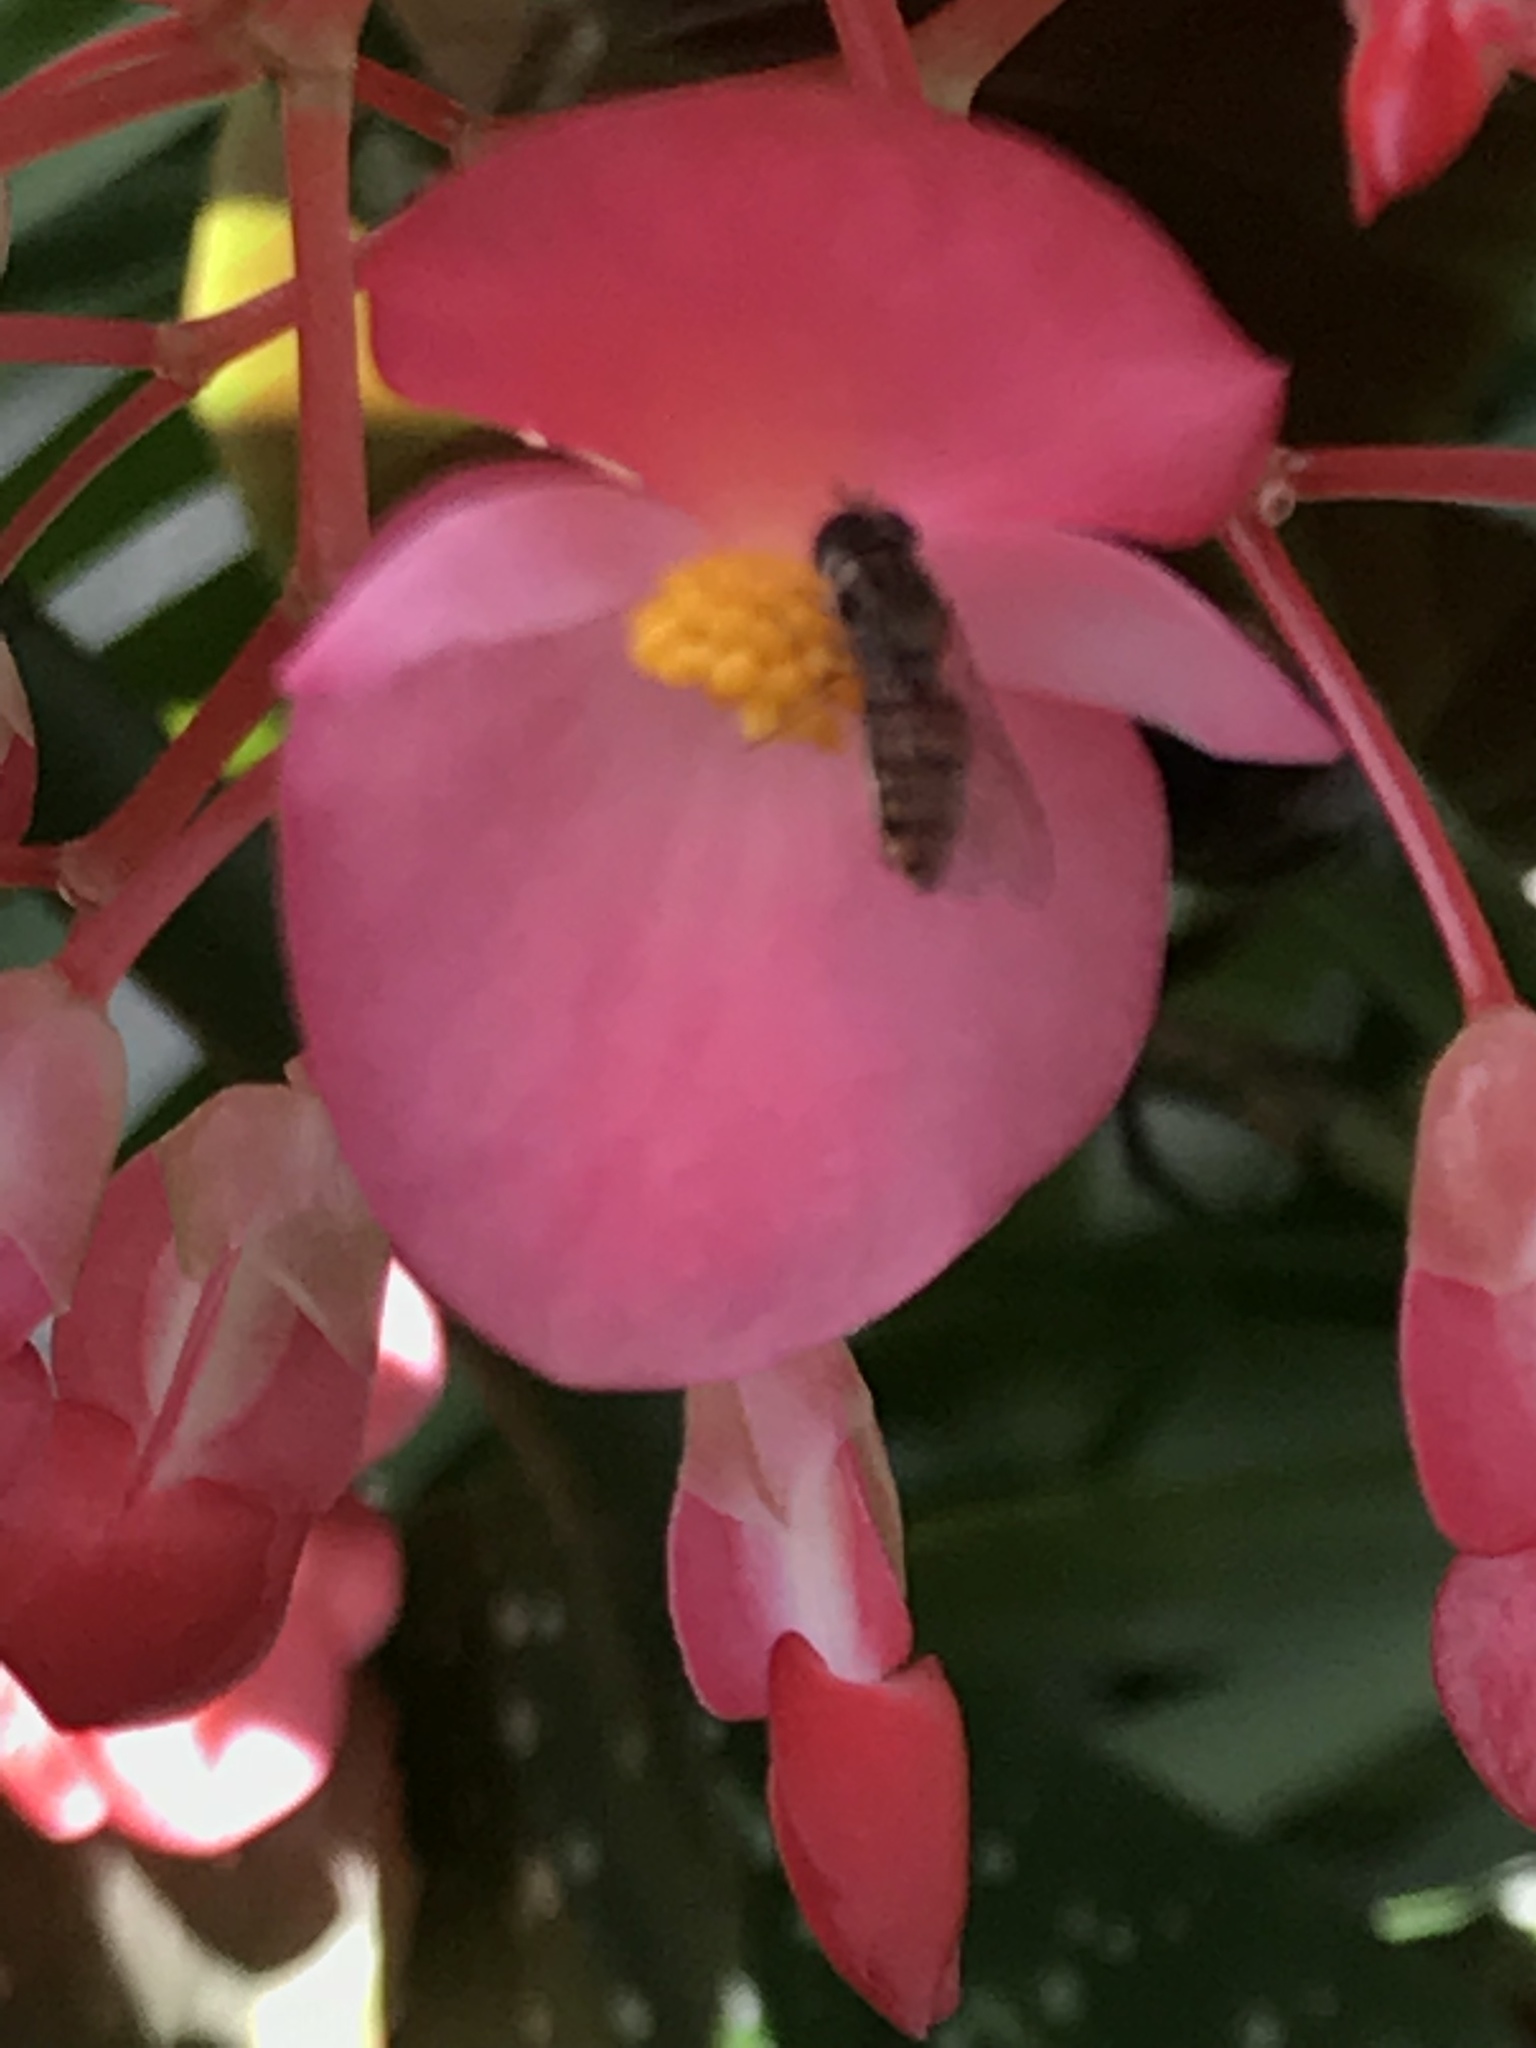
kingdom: Animalia
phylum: Arthropoda
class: Insecta
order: Diptera
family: Syrphidae
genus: Episyrphus
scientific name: Episyrphus balteatus
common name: Marmalade hoverfly
